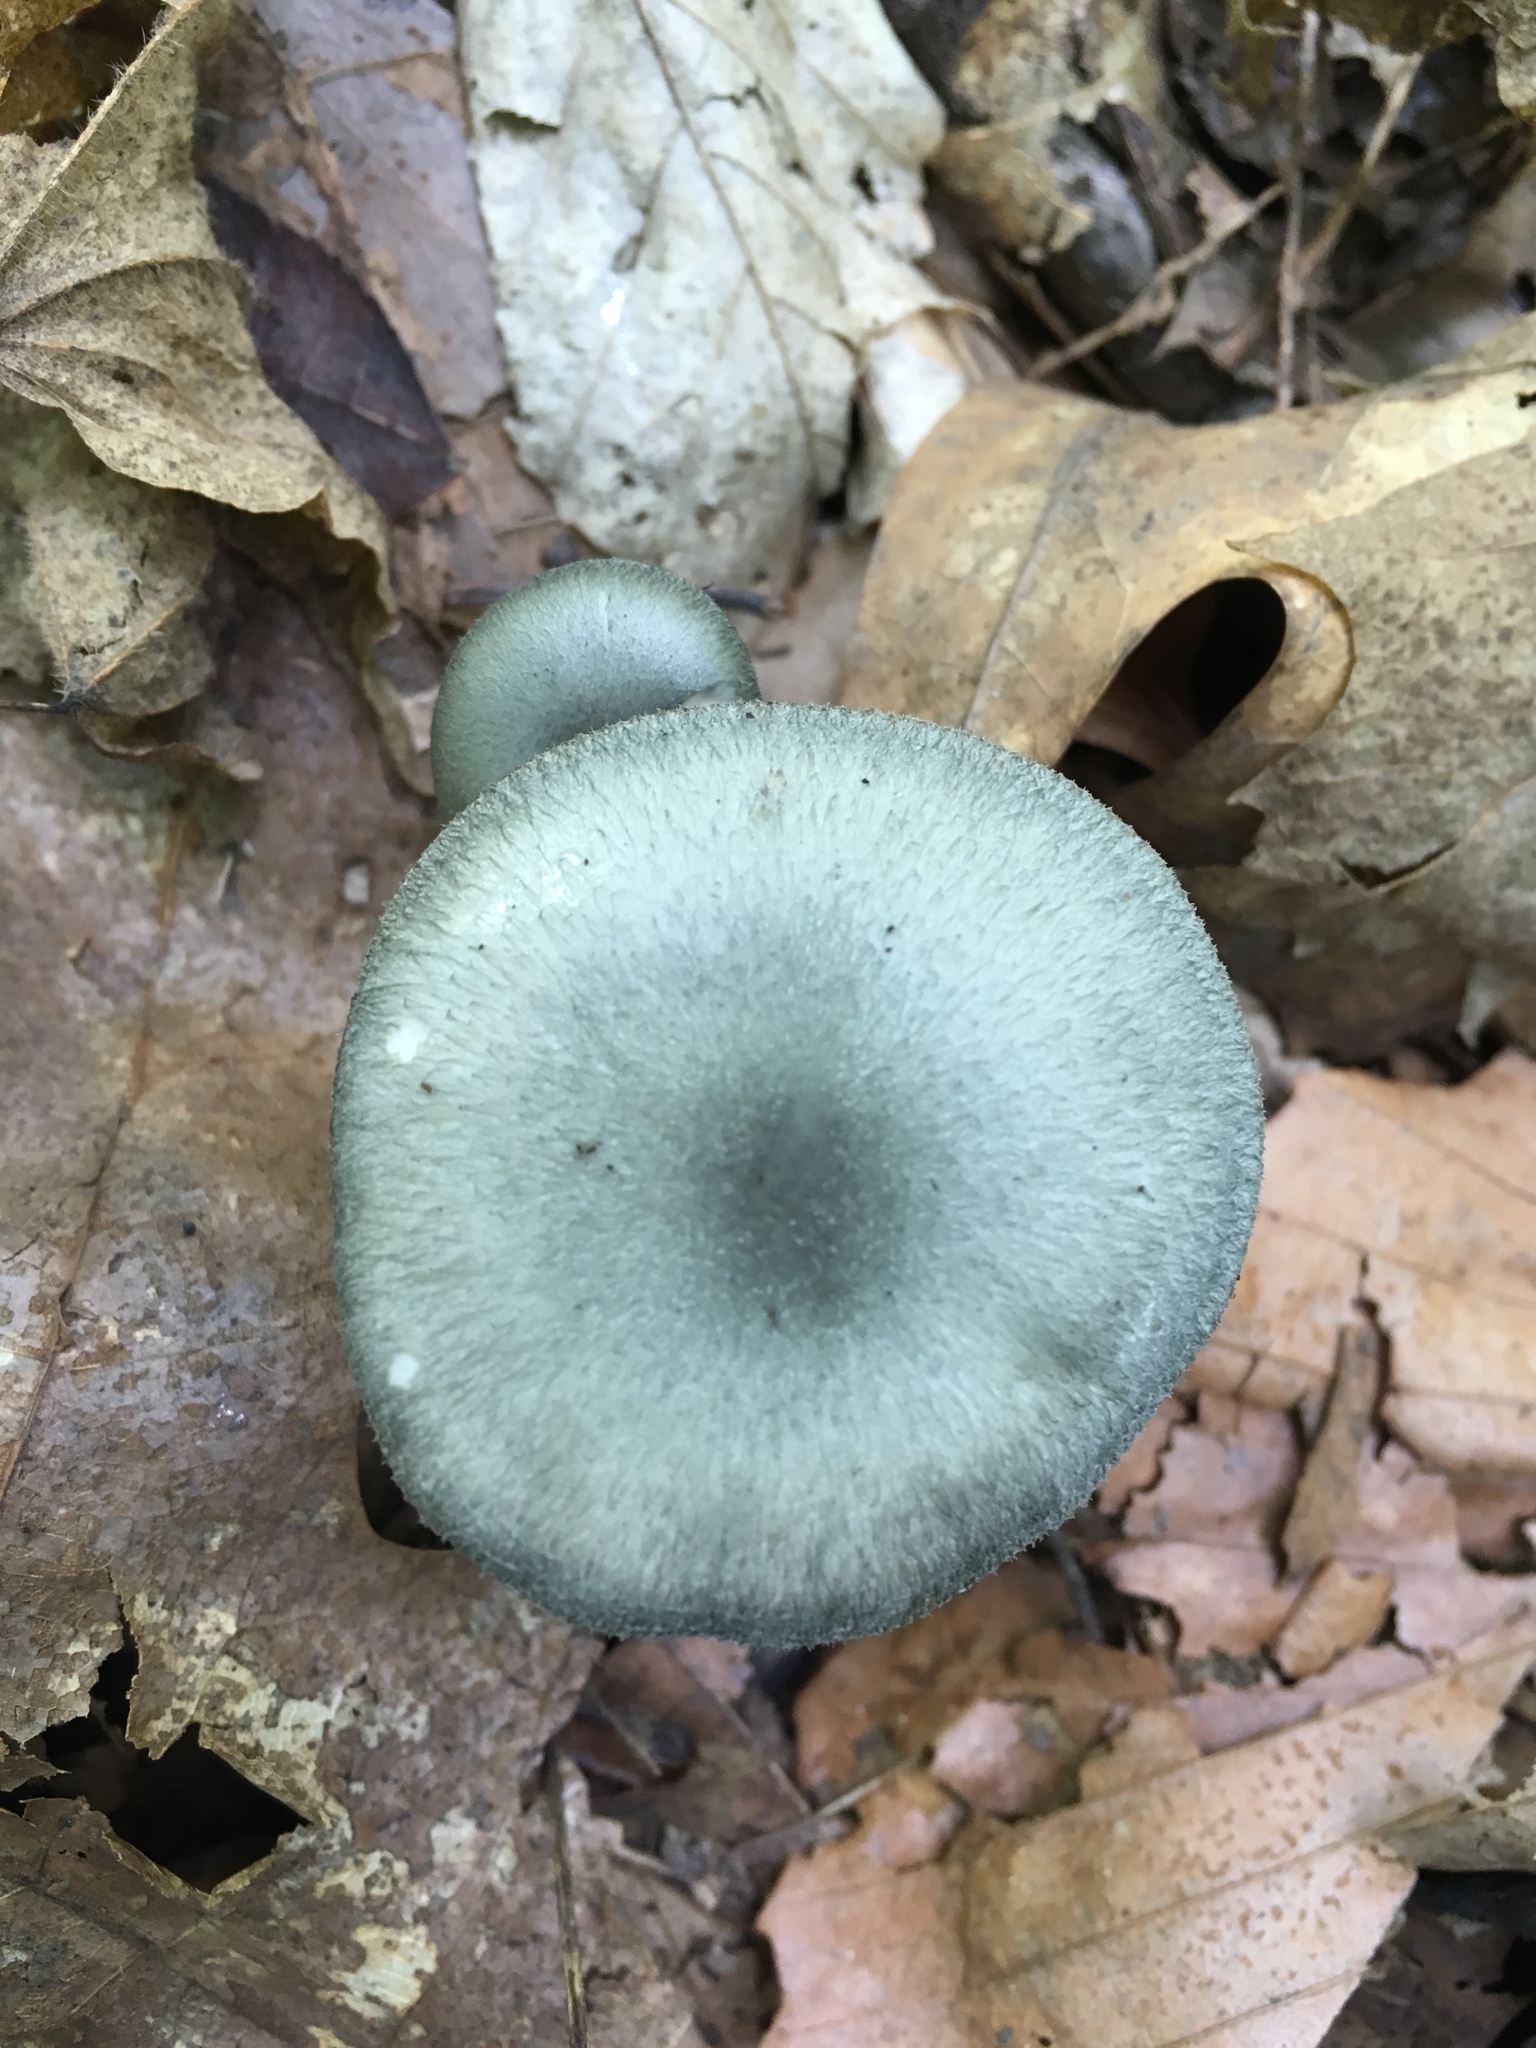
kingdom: Fungi
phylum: Basidiomycota
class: Agaricomycetes
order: Agaricales
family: Tricholomataceae
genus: Clitocybe
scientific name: Clitocybe glaucoalba
